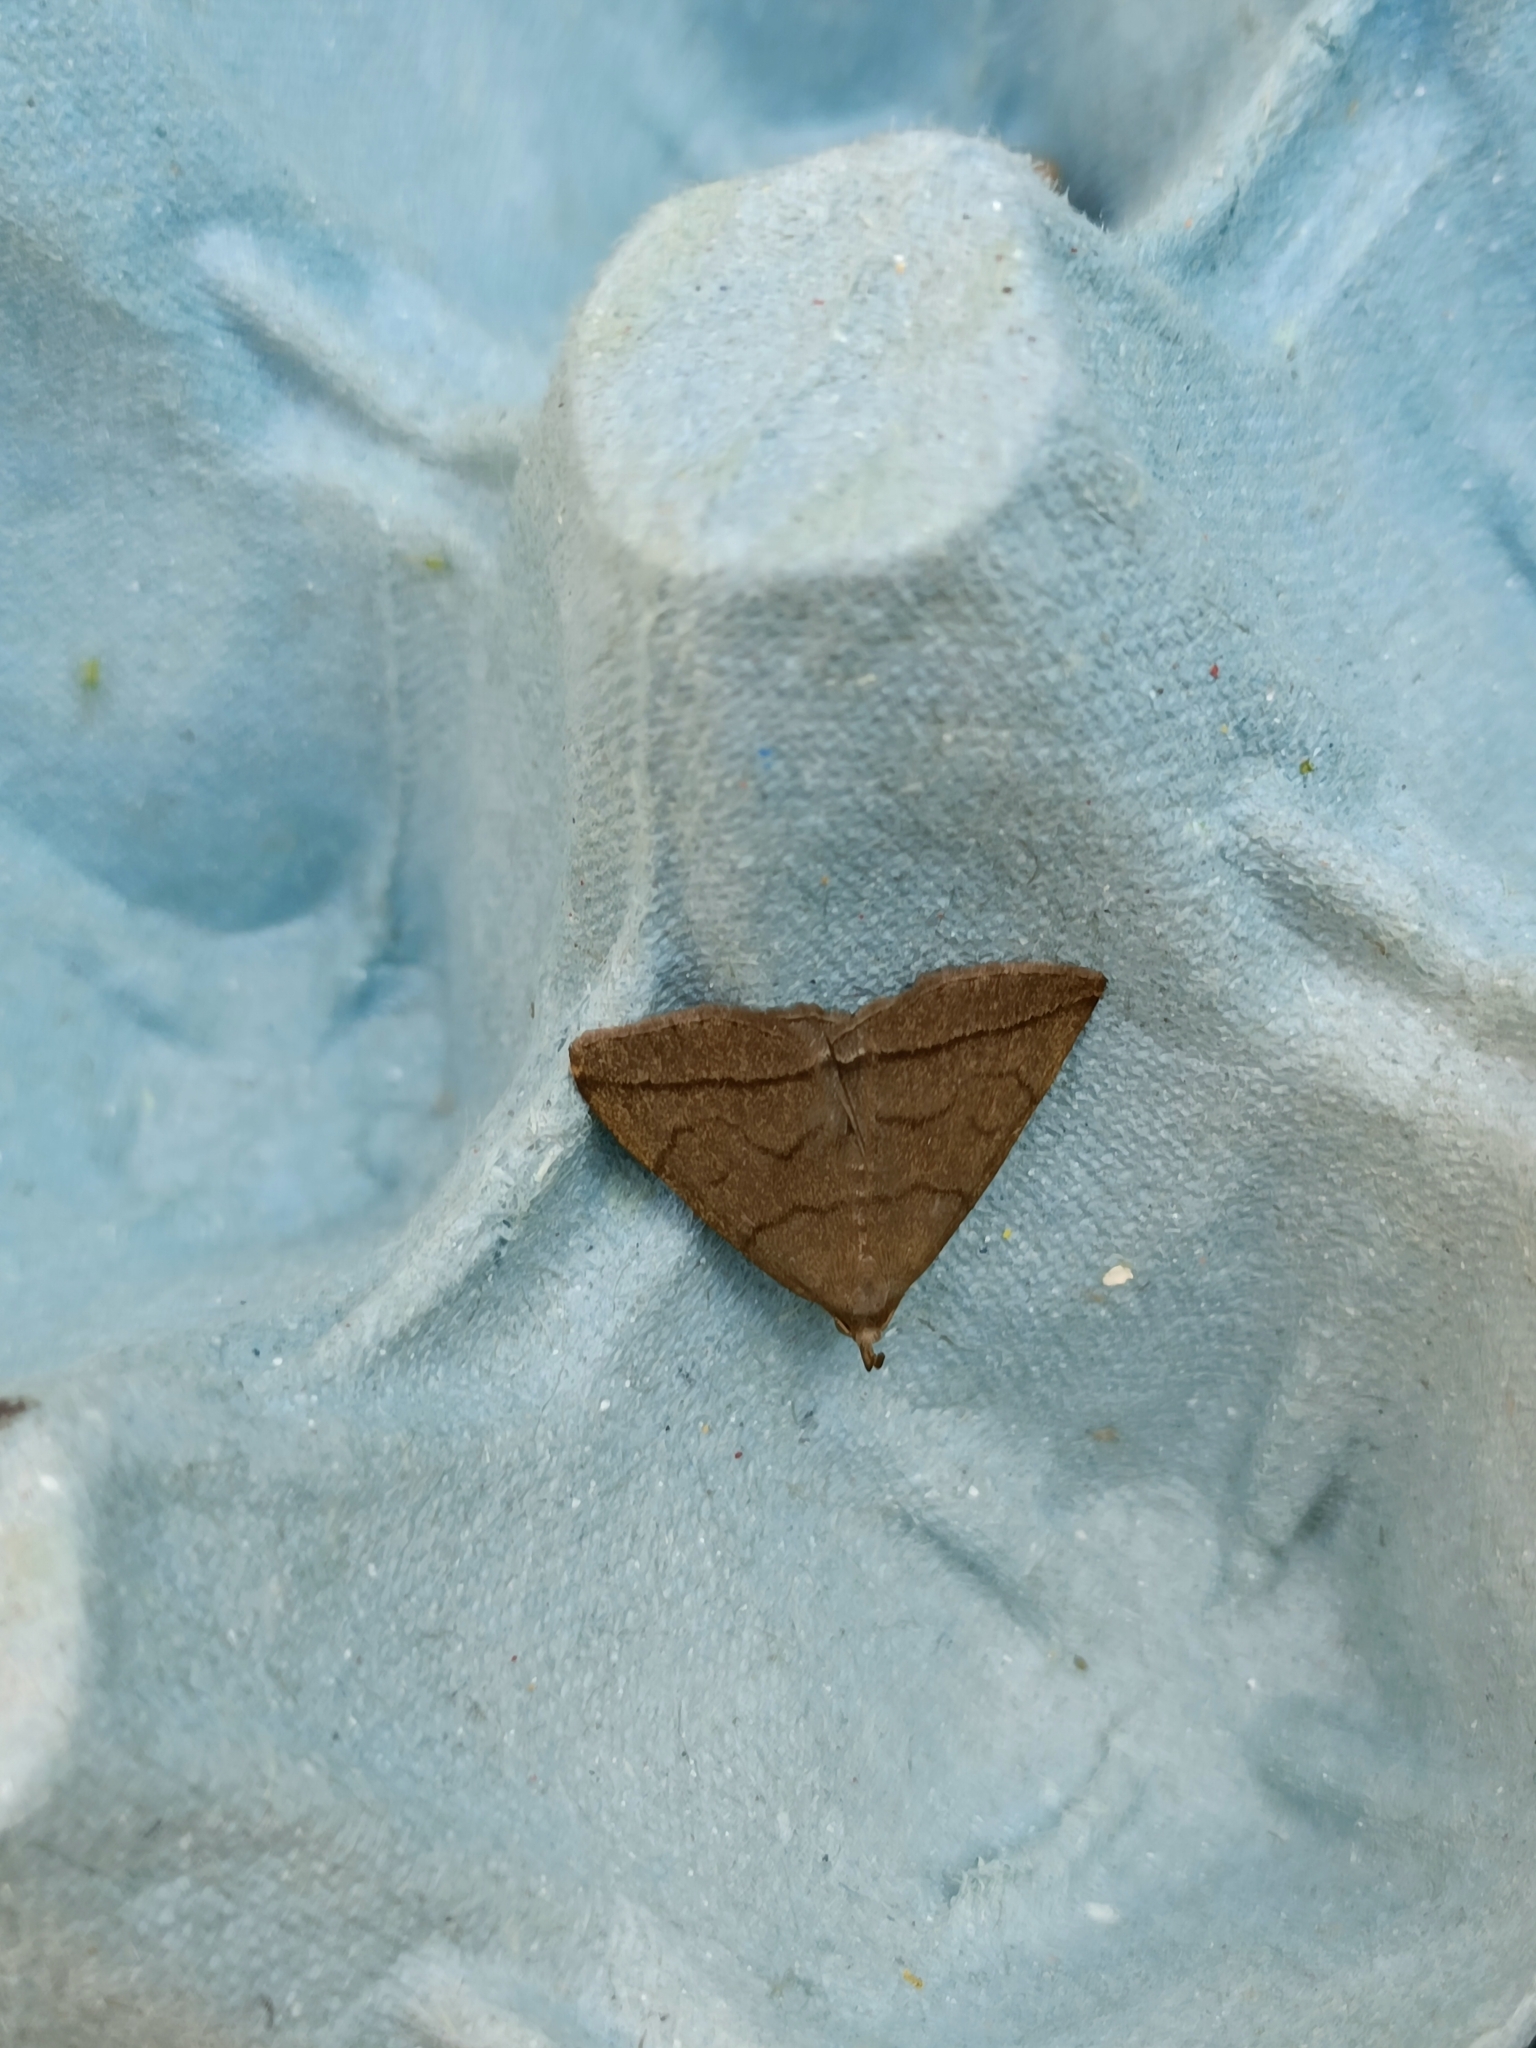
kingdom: Animalia
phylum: Arthropoda
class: Insecta
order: Lepidoptera
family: Erebidae
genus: Herminia
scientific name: Herminia tarsipennalis
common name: Fan-foot
